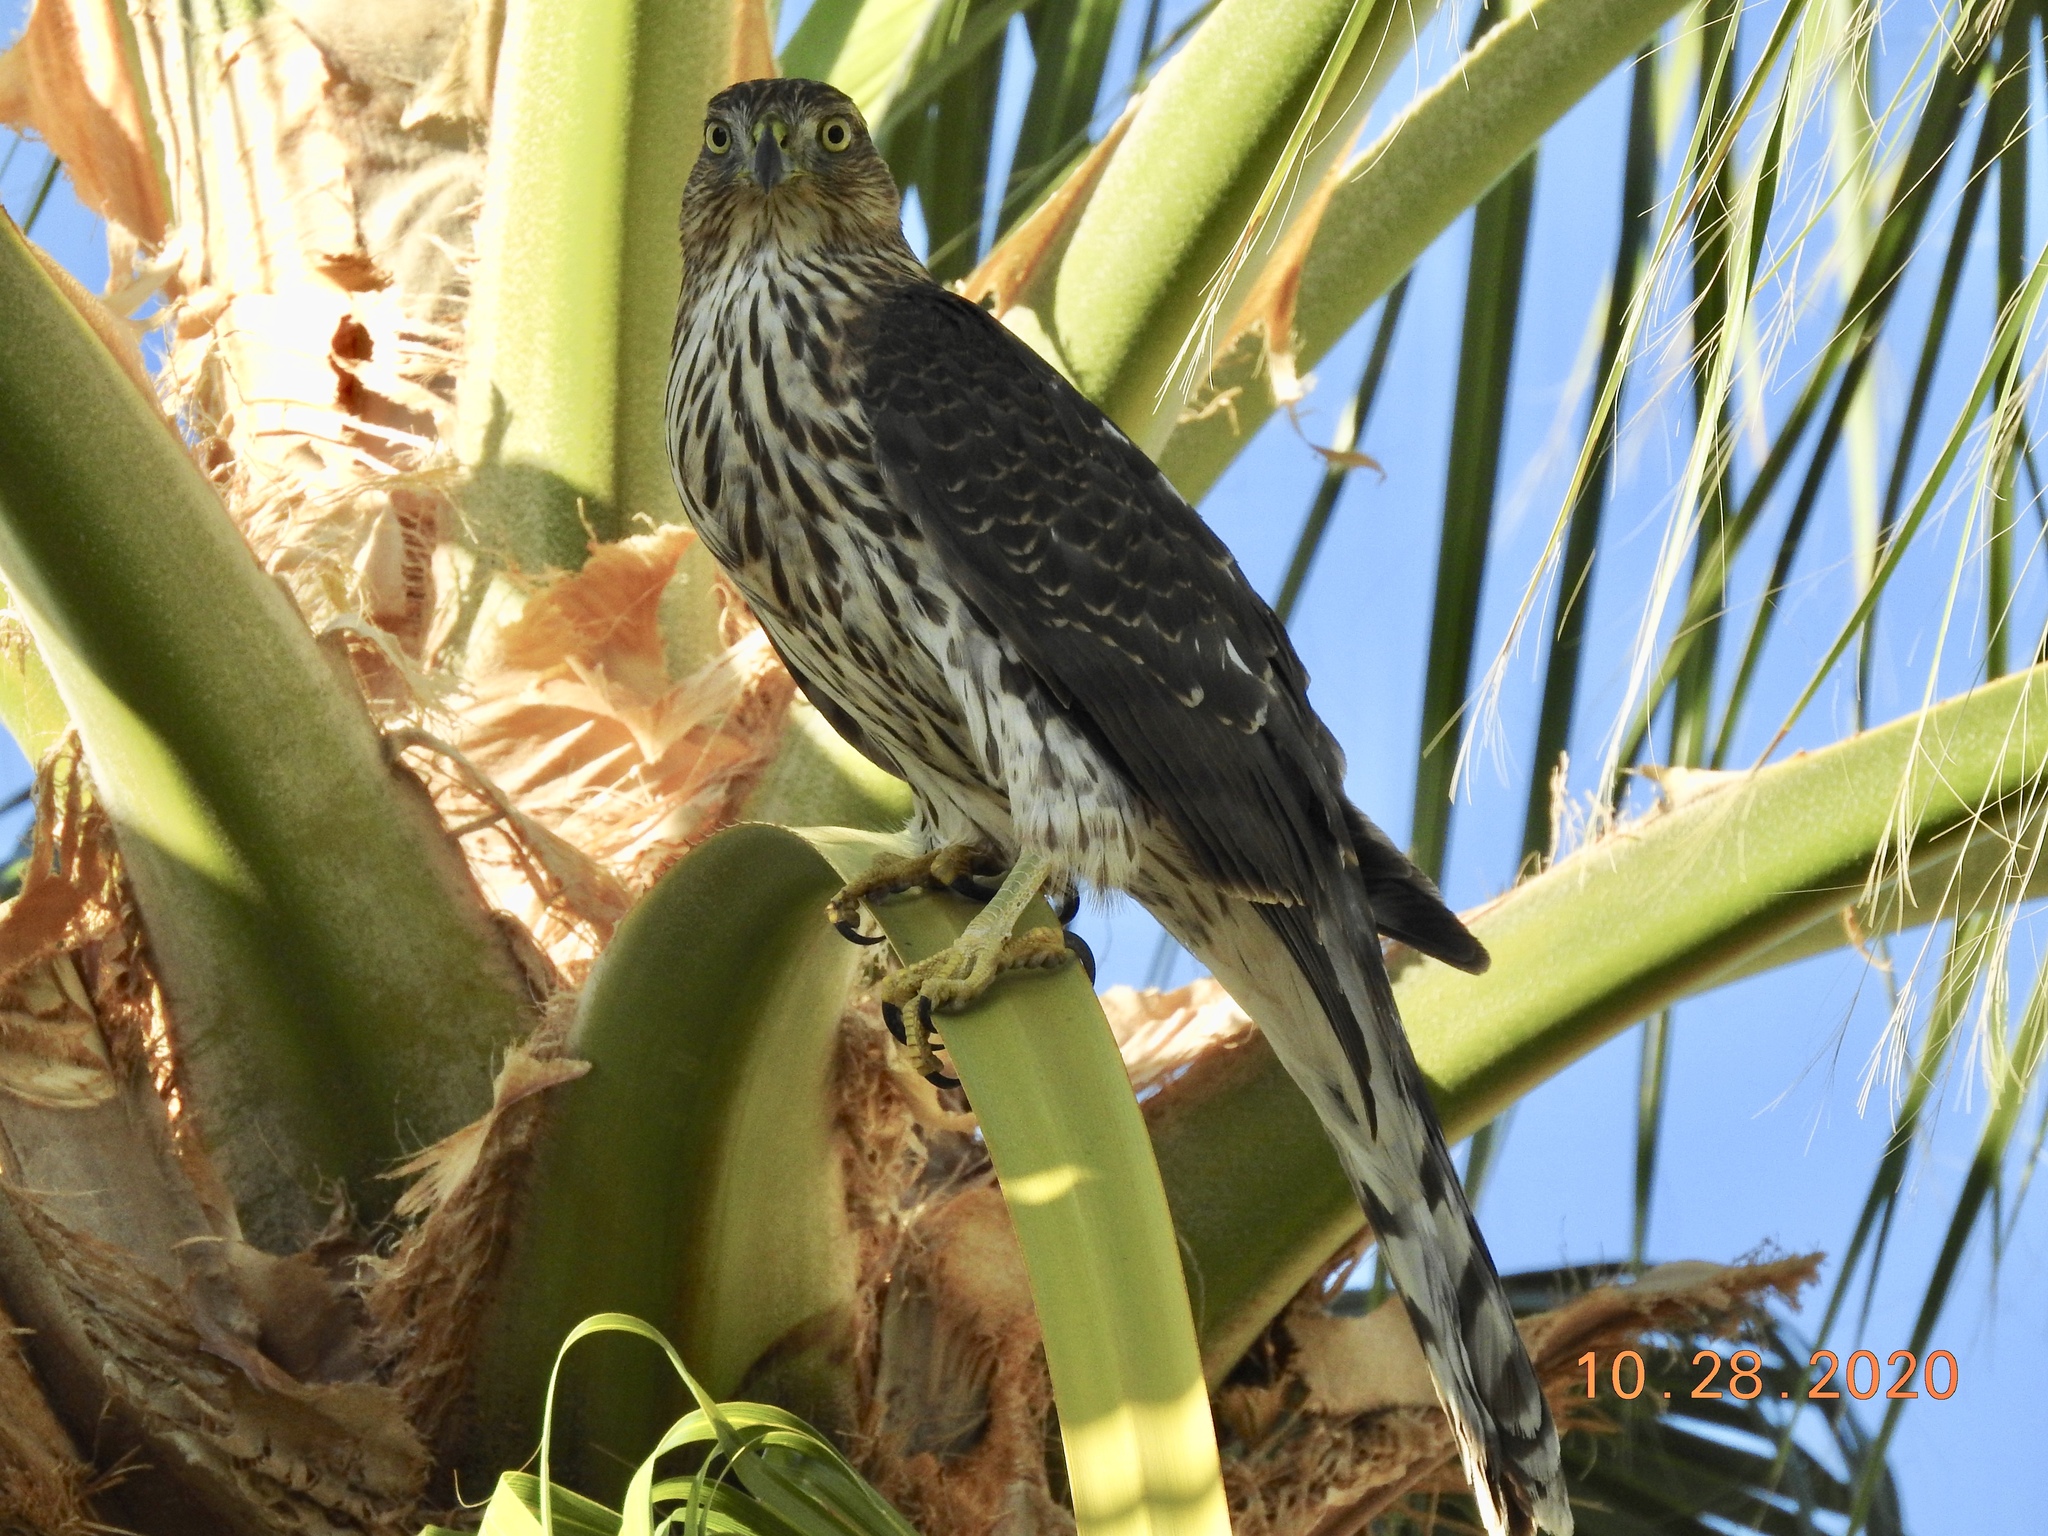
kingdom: Animalia
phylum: Chordata
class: Aves
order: Accipitriformes
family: Accipitridae
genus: Accipiter
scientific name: Accipiter cooperii
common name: Cooper's hawk
